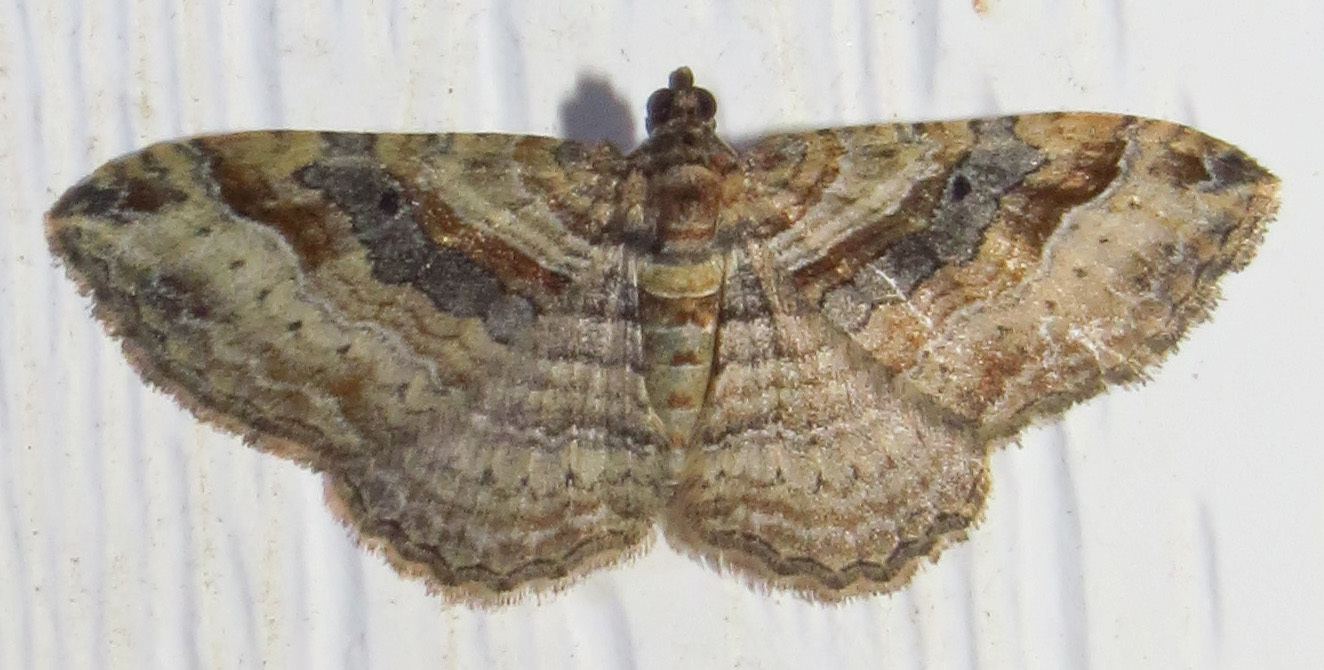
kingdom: Animalia
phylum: Arthropoda
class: Insecta
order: Lepidoptera
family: Geometridae
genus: Costaconvexa
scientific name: Costaconvexa centrostrigaria
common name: Bent-line carpet
